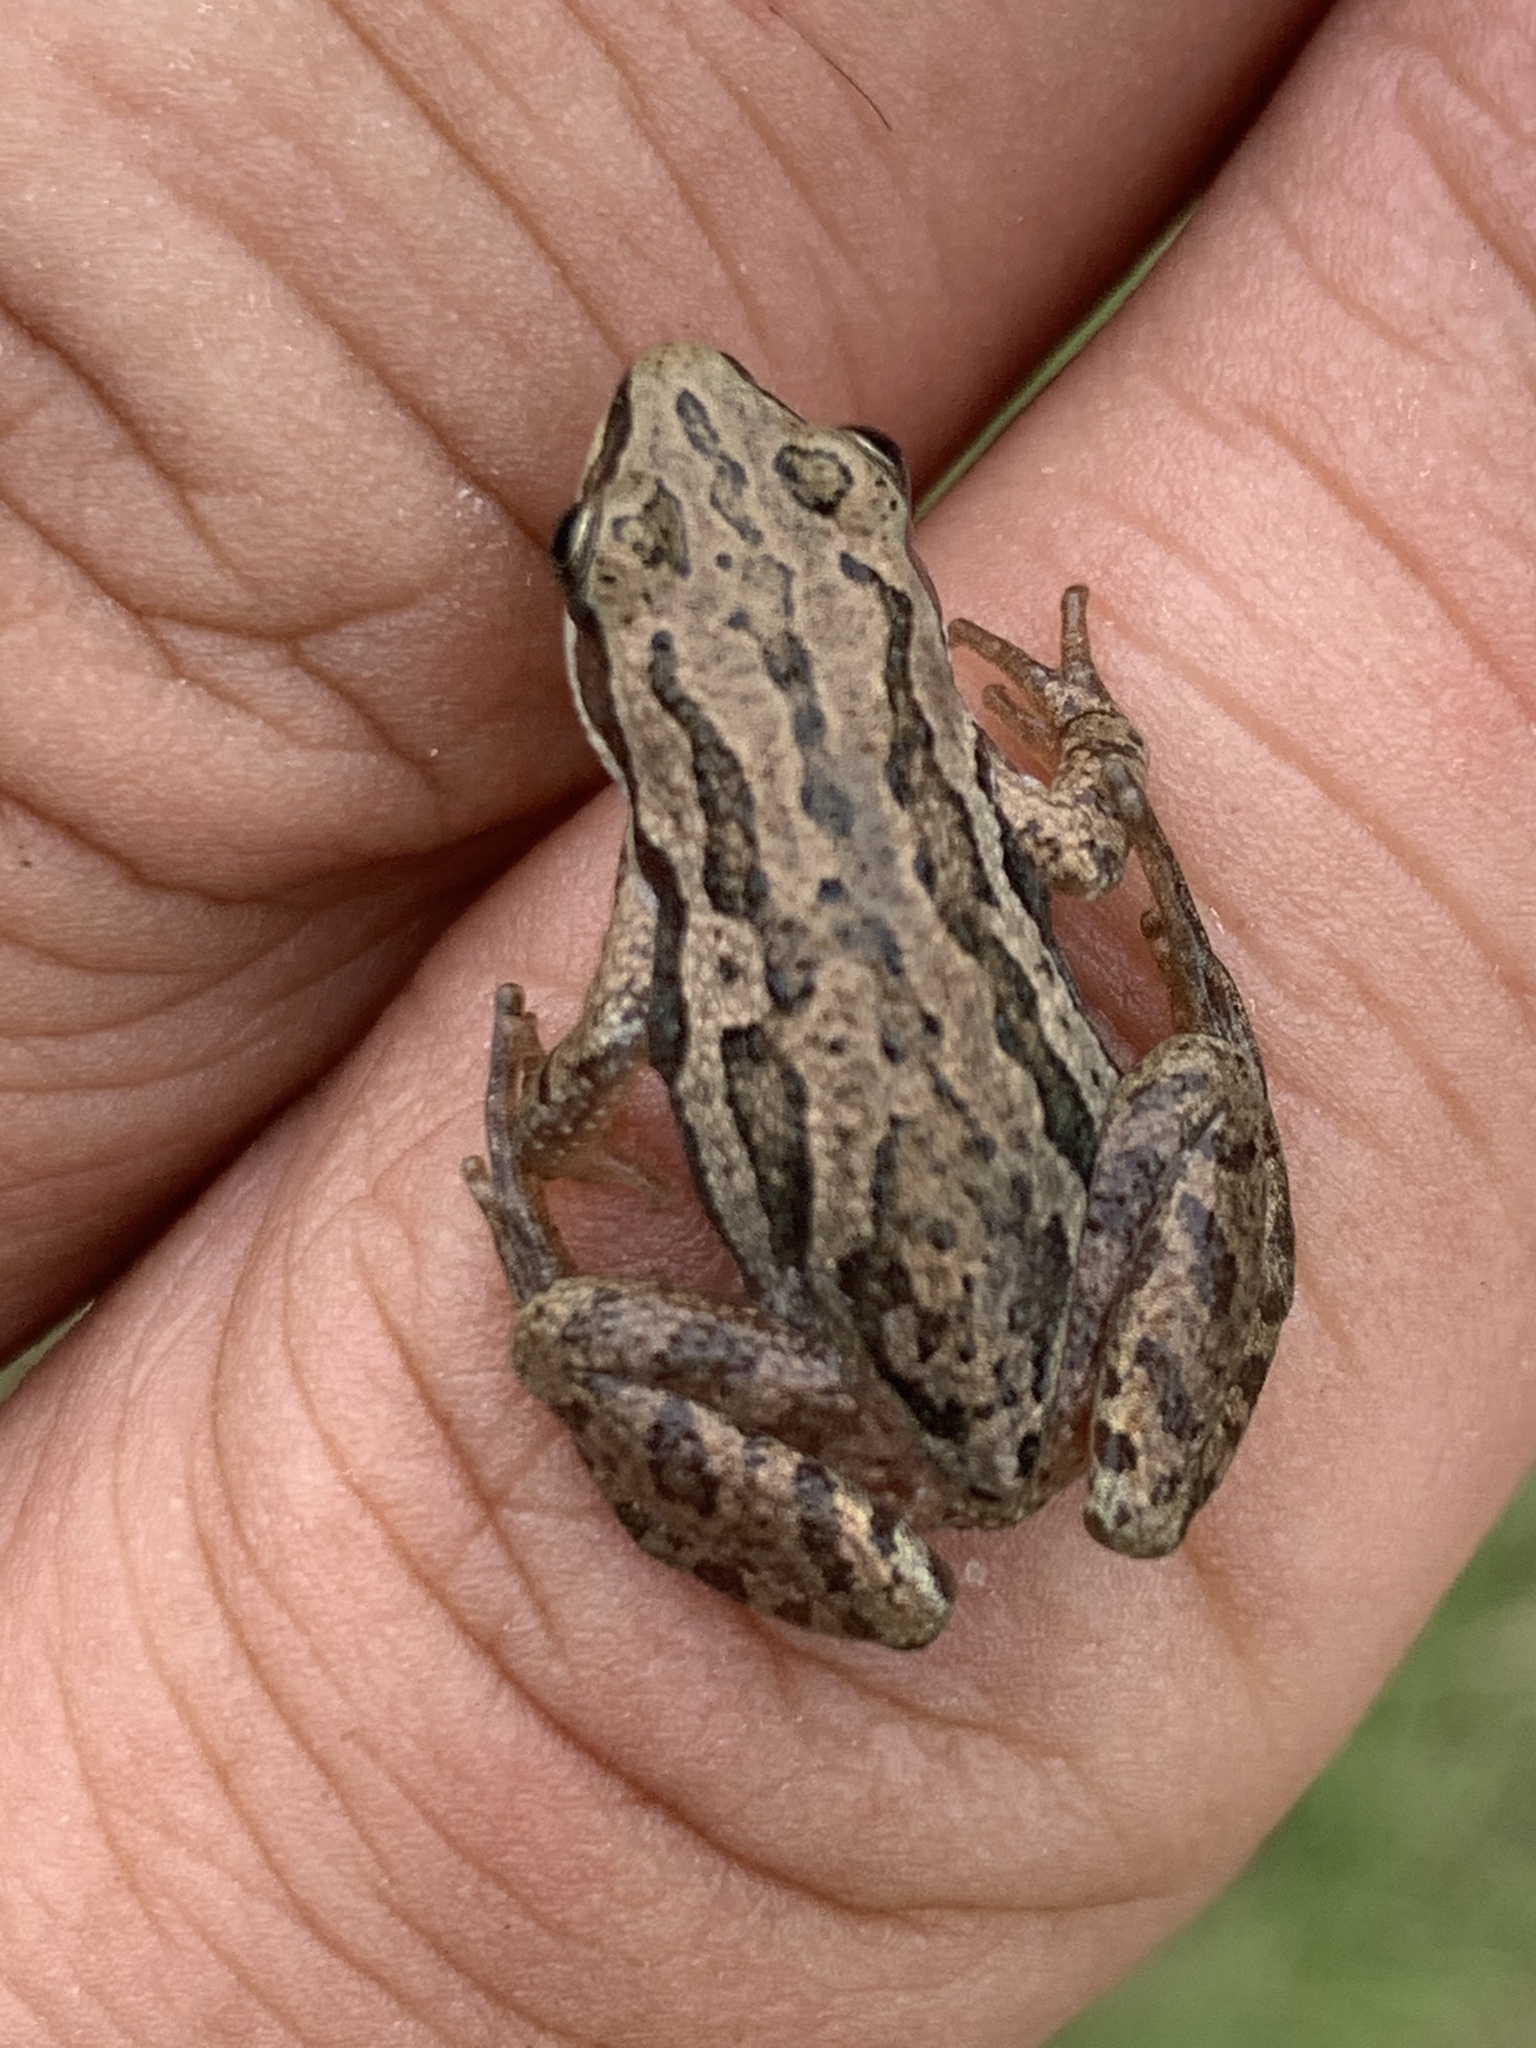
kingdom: Animalia
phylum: Chordata
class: Amphibia
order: Anura
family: Hylidae
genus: Pseudacris
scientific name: Pseudacris maculata
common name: Boreal chorus frog
